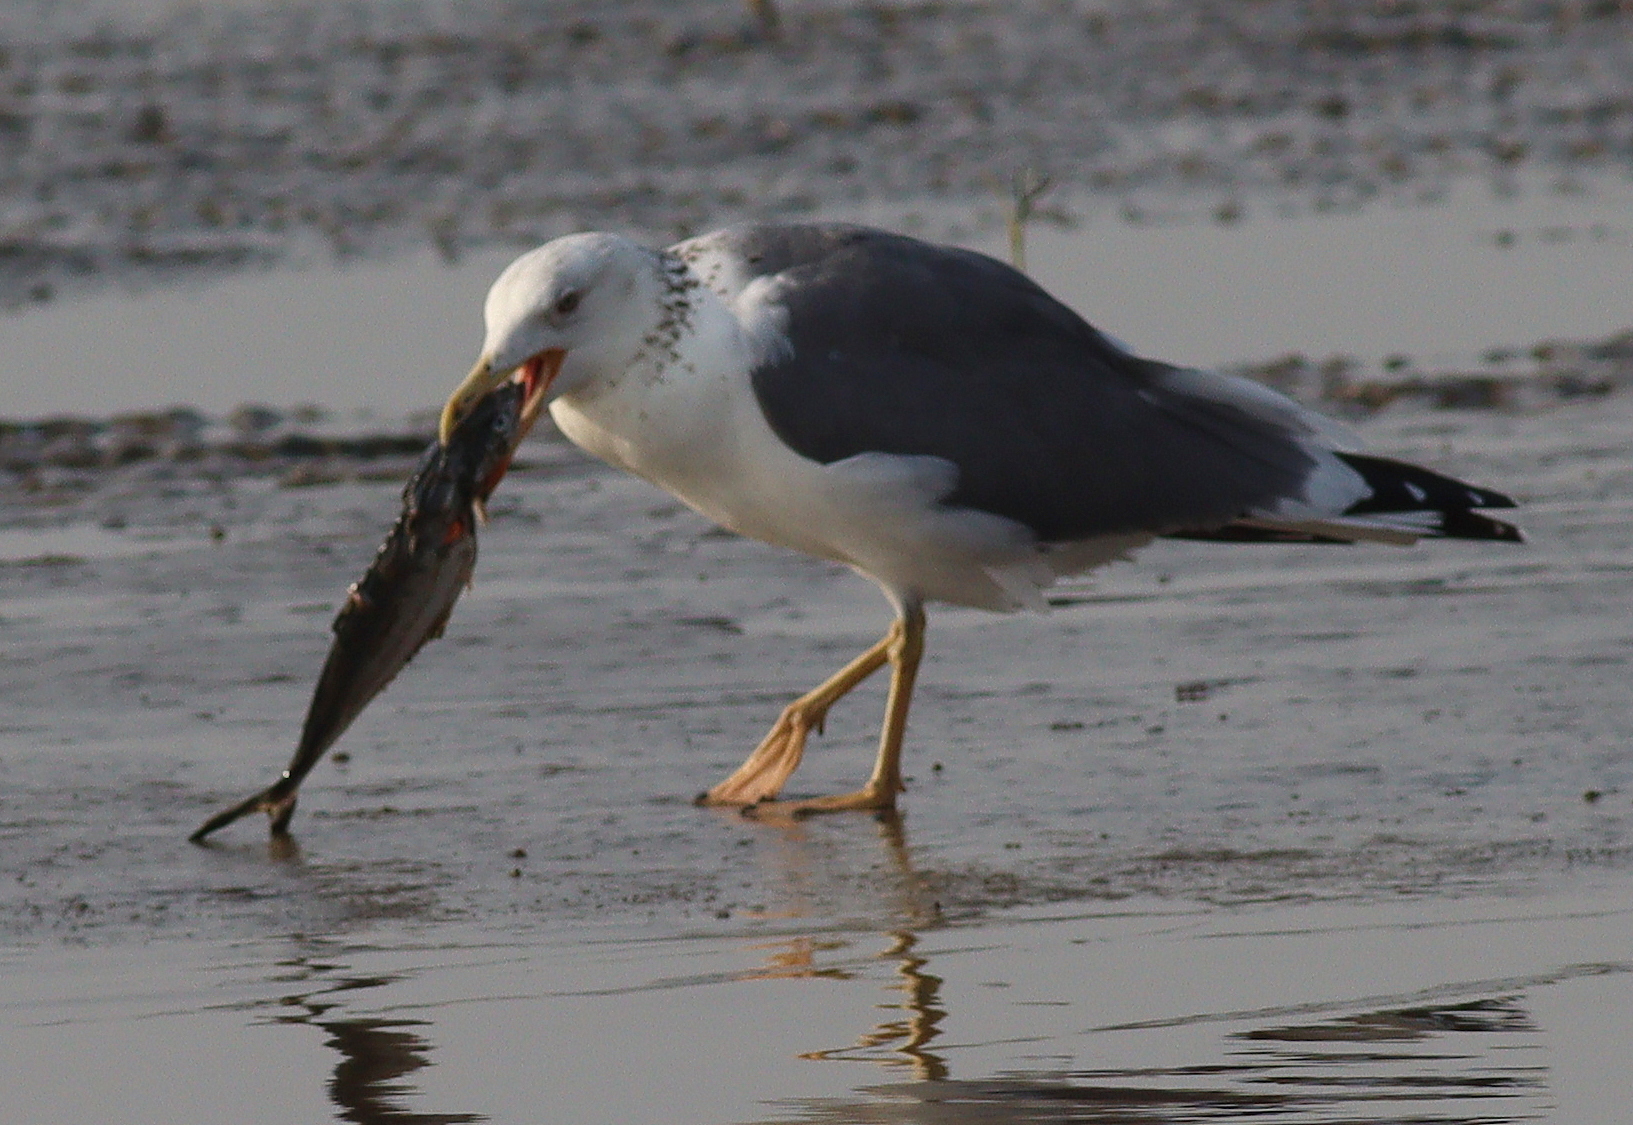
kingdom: Animalia
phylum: Chordata
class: Aves
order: Charadriiformes
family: Laridae
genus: Larus
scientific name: Larus fuscus
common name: Lesser black-backed gull
